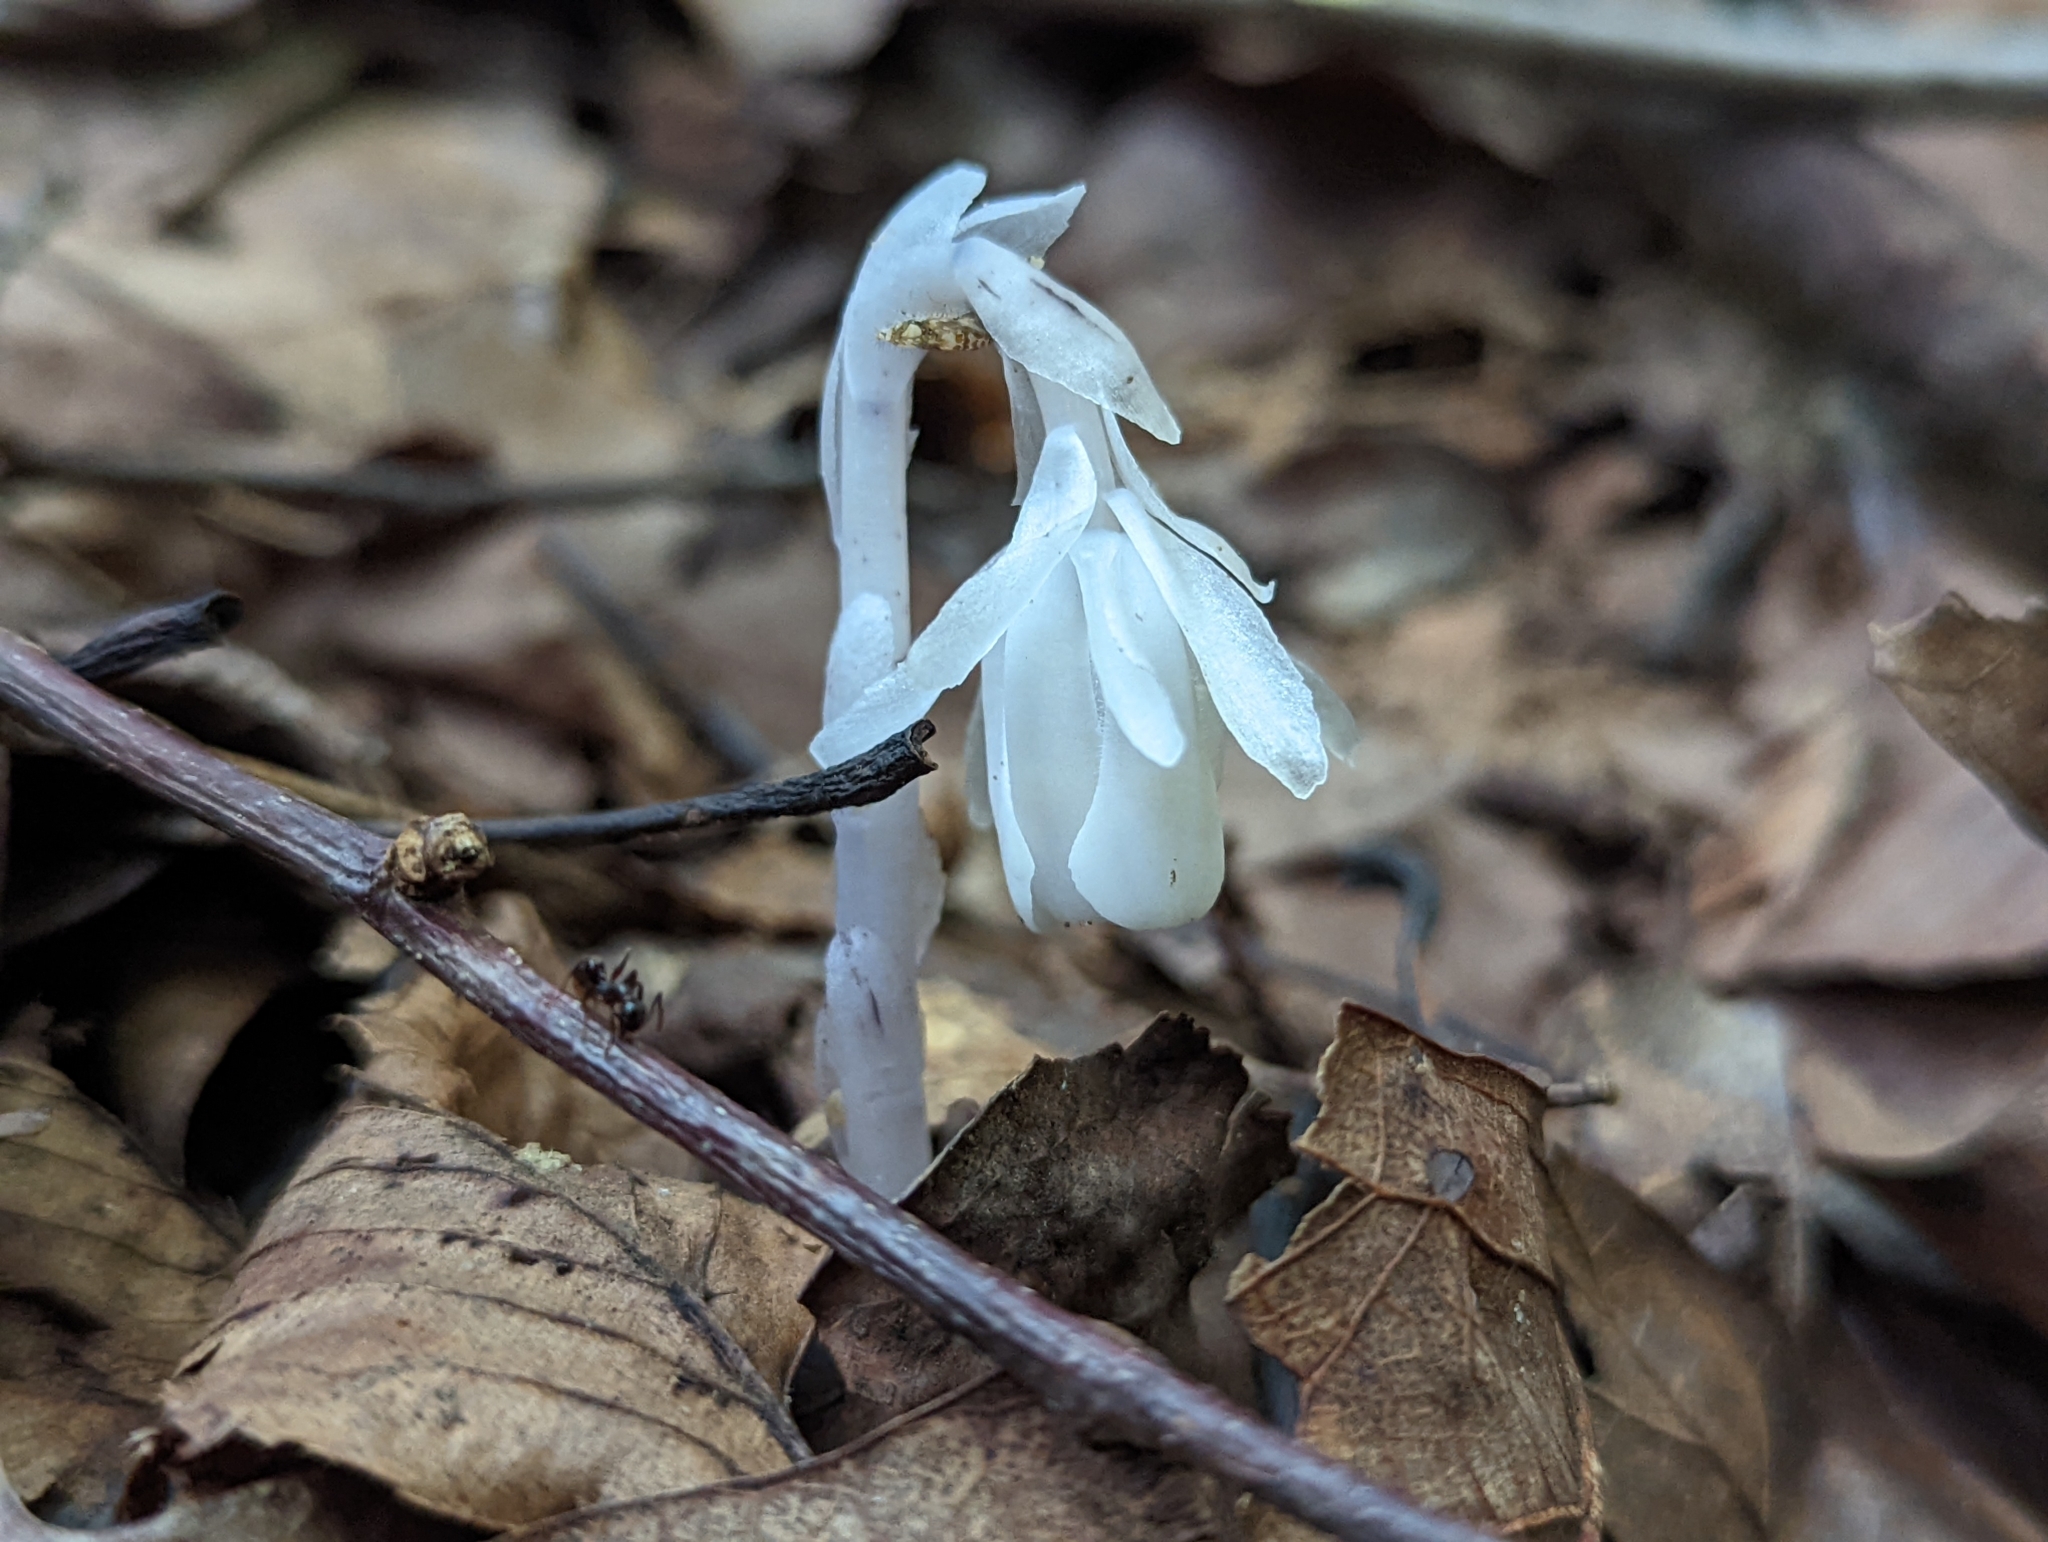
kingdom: Plantae
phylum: Tracheophyta
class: Magnoliopsida
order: Ericales
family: Ericaceae
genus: Monotropa
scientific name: Monotropa uniflora
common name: Convulsion root
